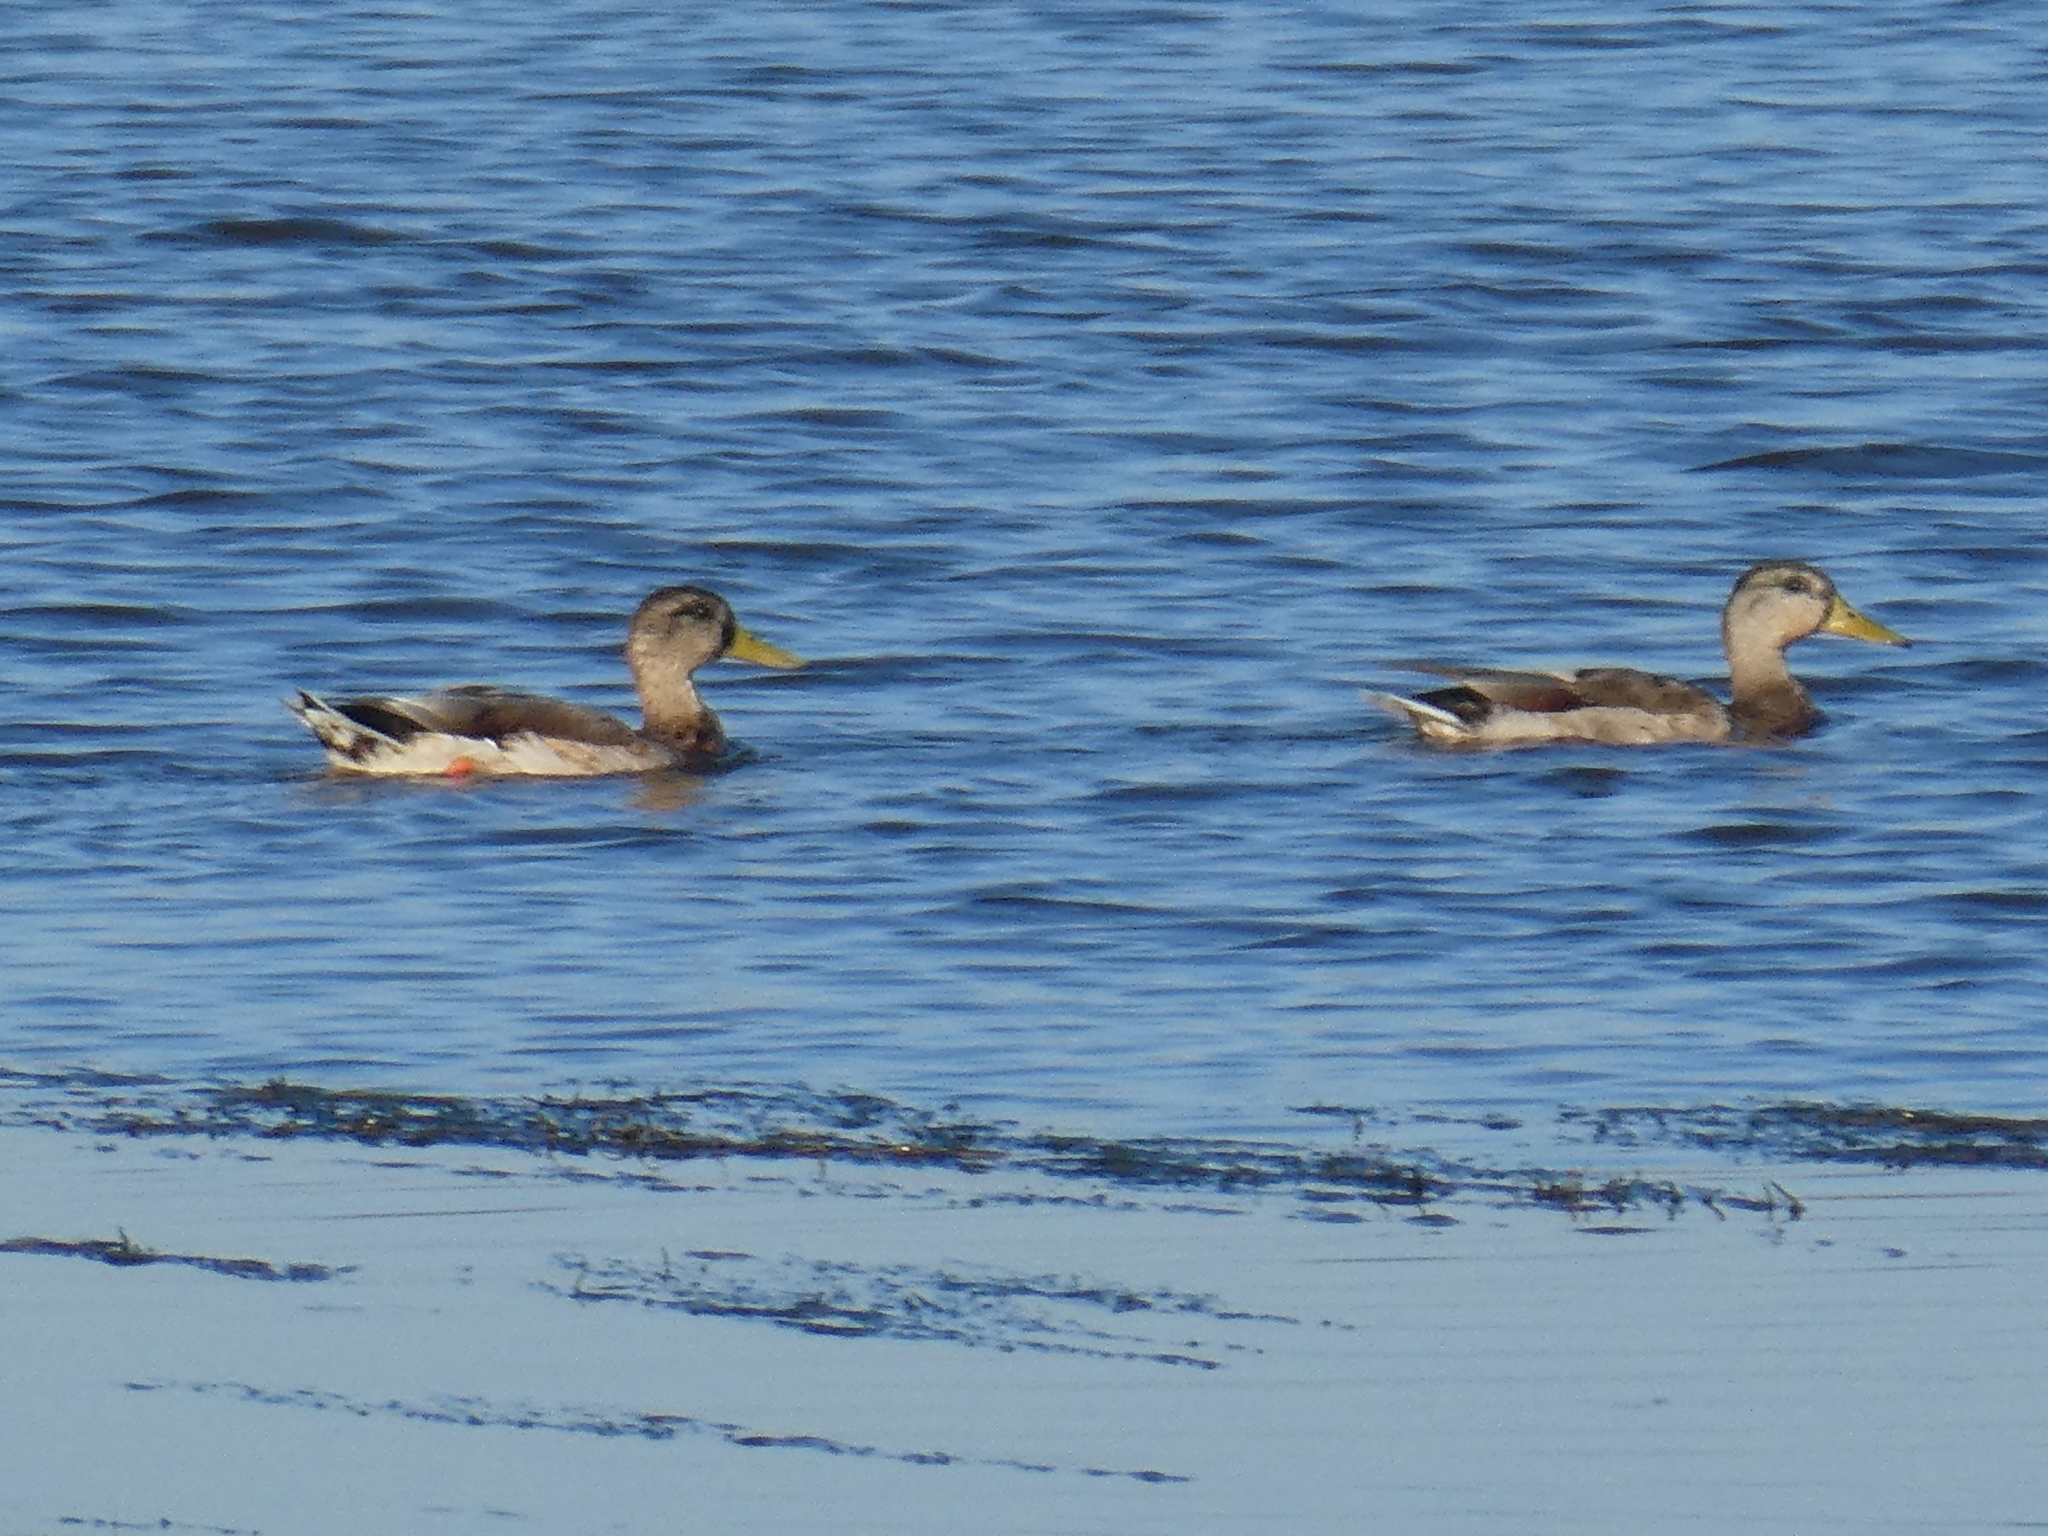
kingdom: Animalia
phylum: Chordata
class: Aves
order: Anseriformes
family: Anatidae
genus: Anas
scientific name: Anas platyrhynchos
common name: Mallard
